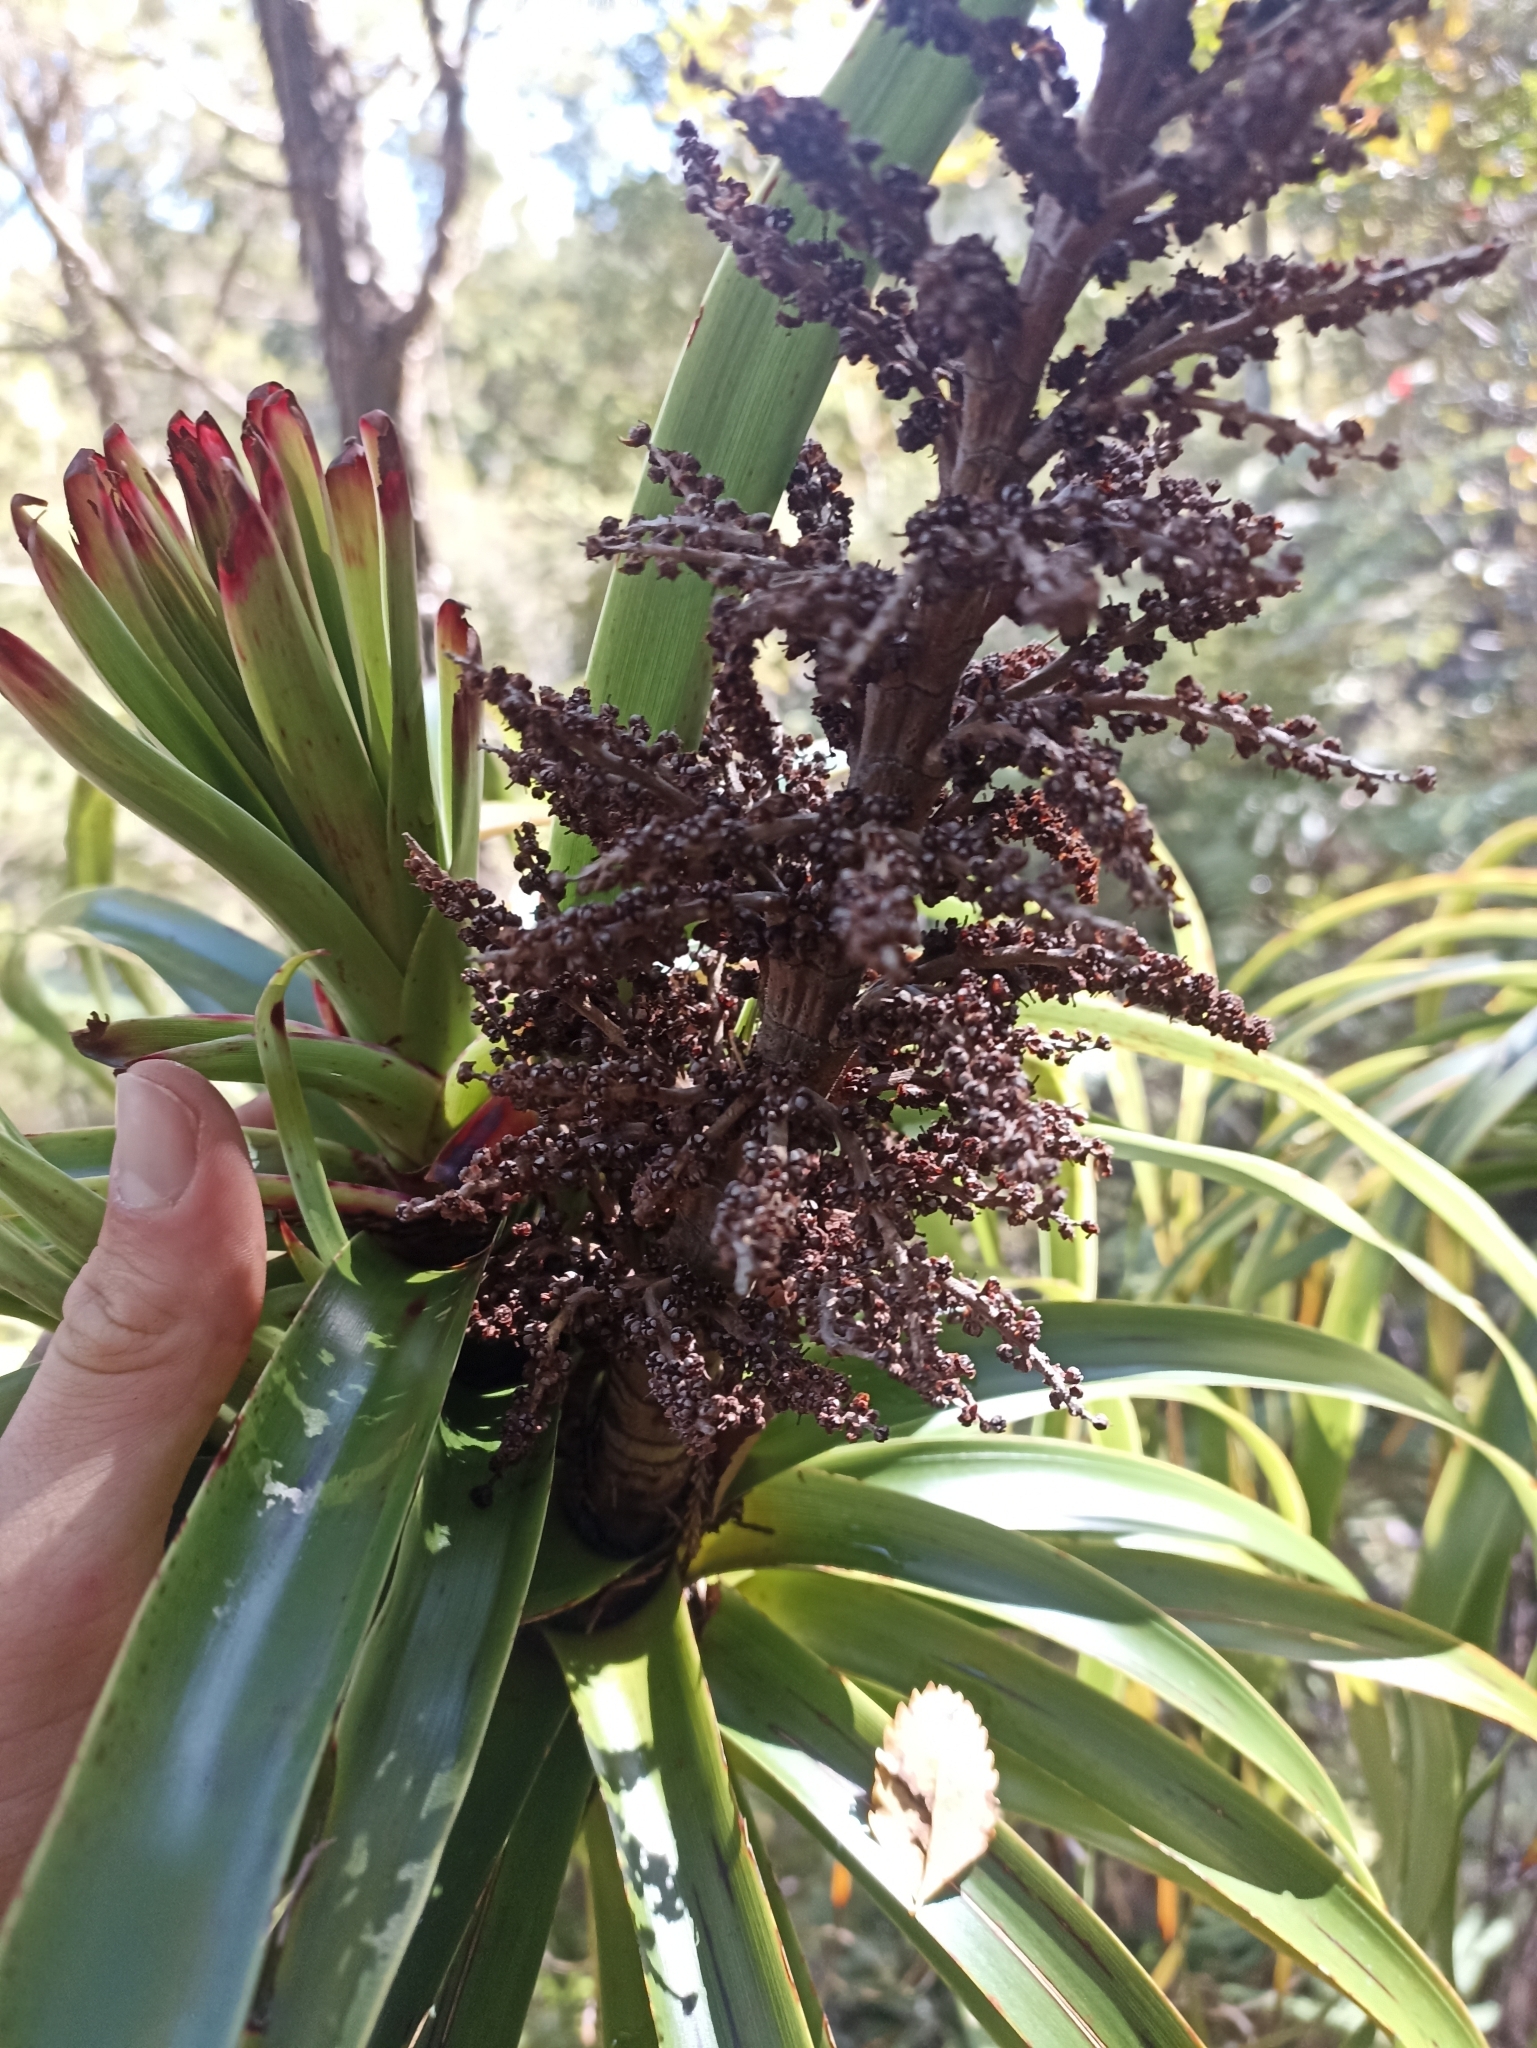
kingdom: Plantae
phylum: Tracheophyta
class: Magnoliopsida
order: Ericales
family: Ericaceae
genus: Dracophyllum
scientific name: Dracophyllum elegantissimum
